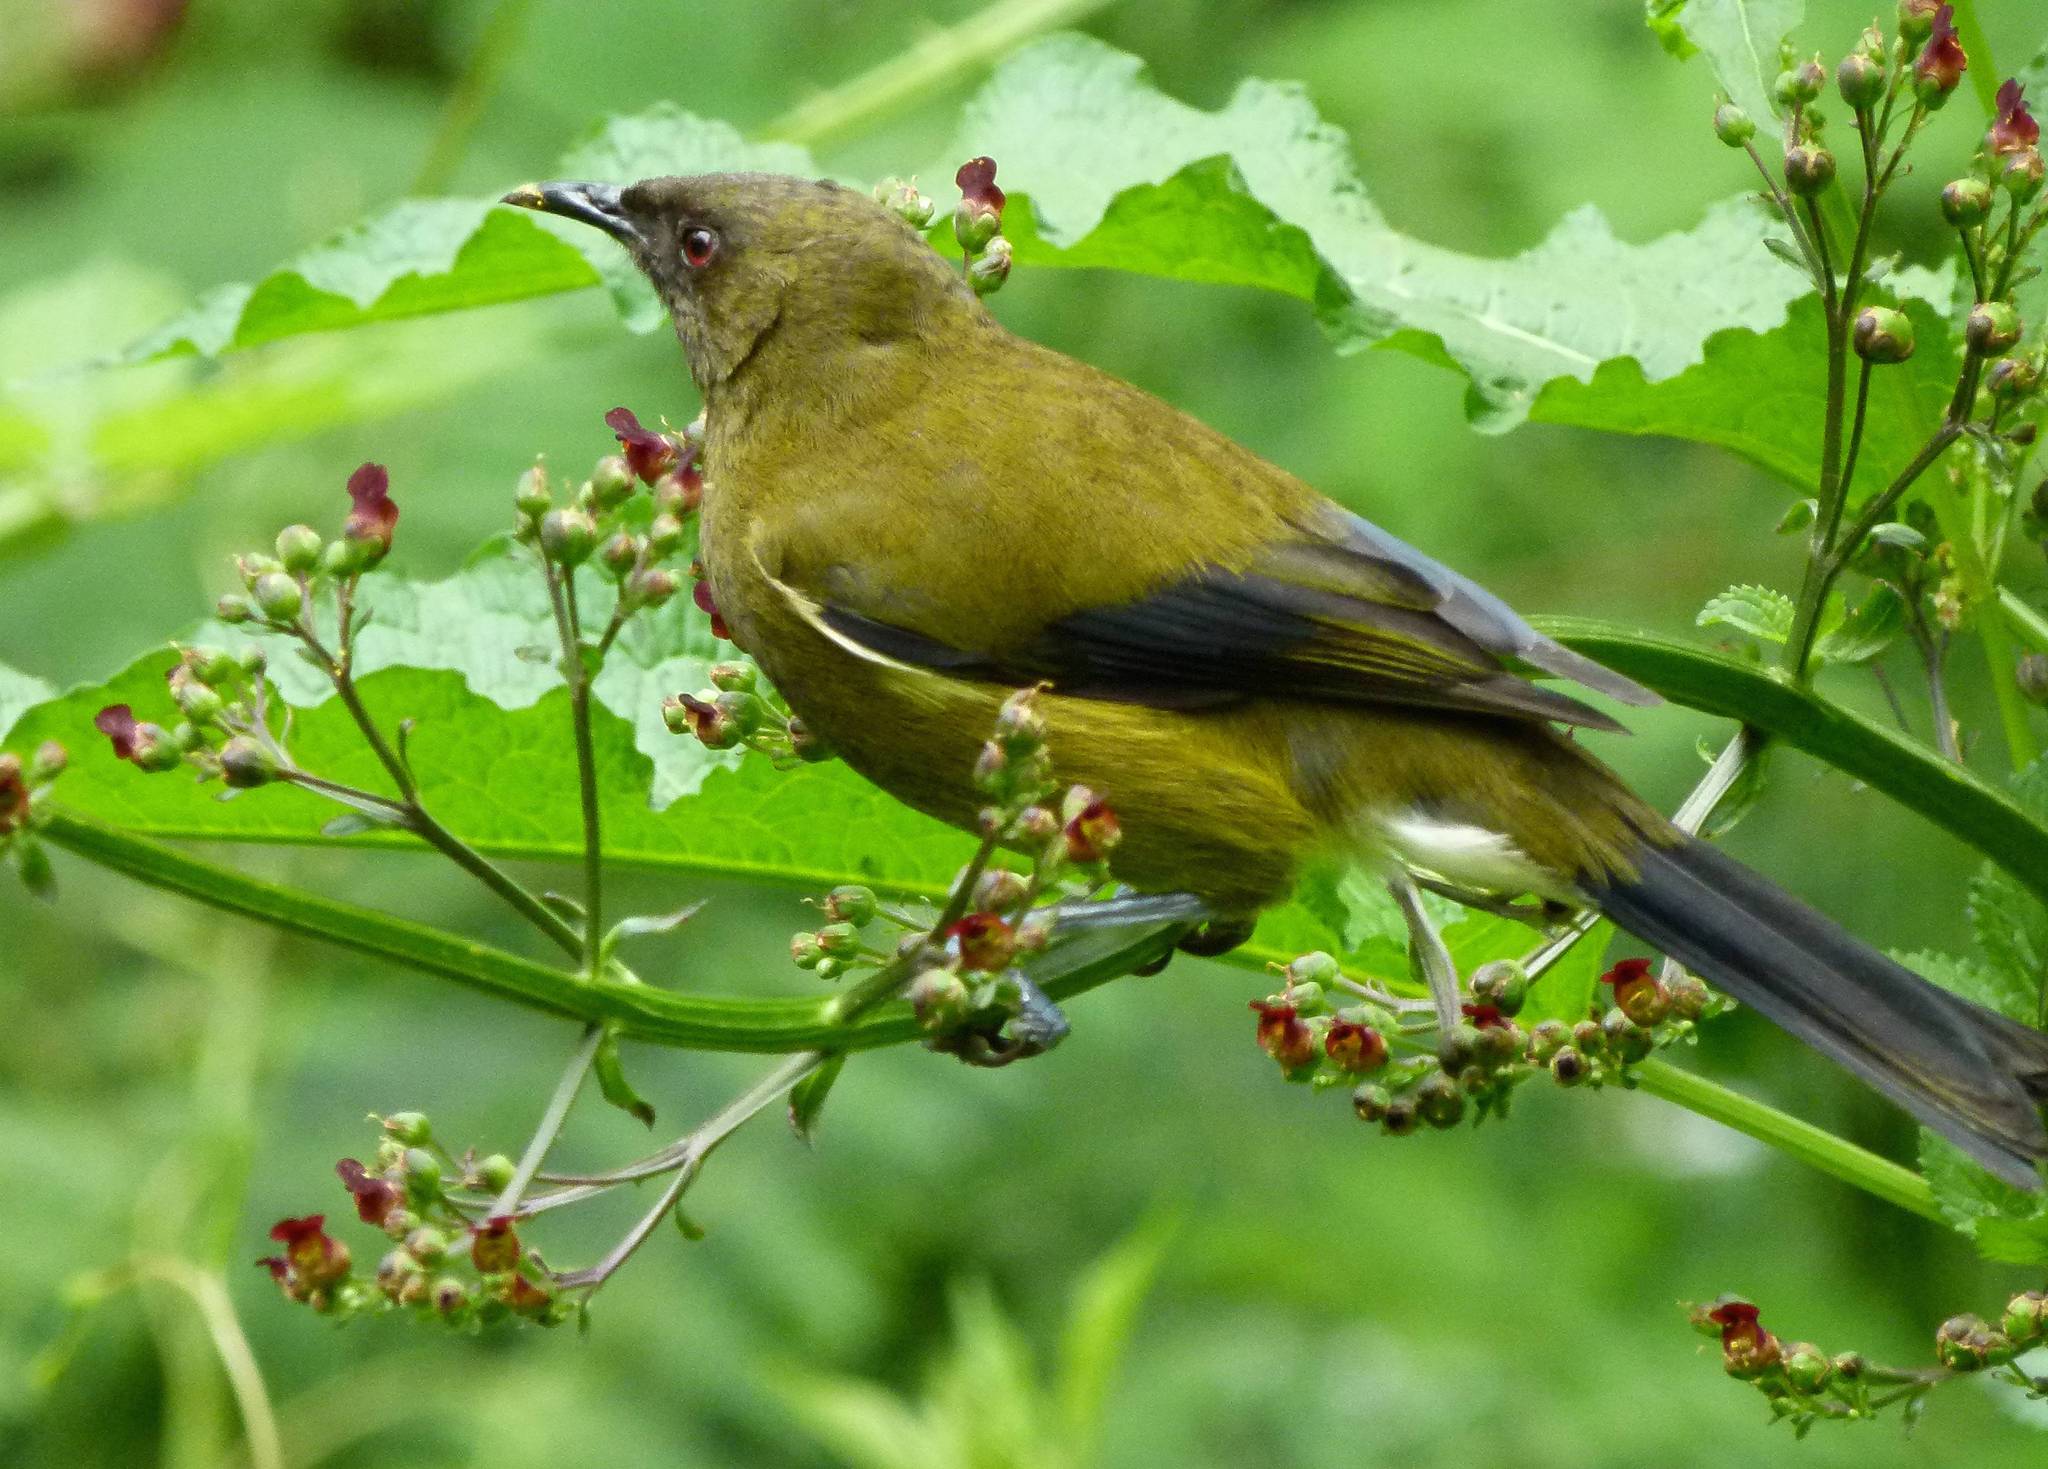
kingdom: Animalia
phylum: Chordata
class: Aves
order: Passeriformes
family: Meliphagidae
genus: Anthornis
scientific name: Anthornis melanura
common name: New zealand bellbird
